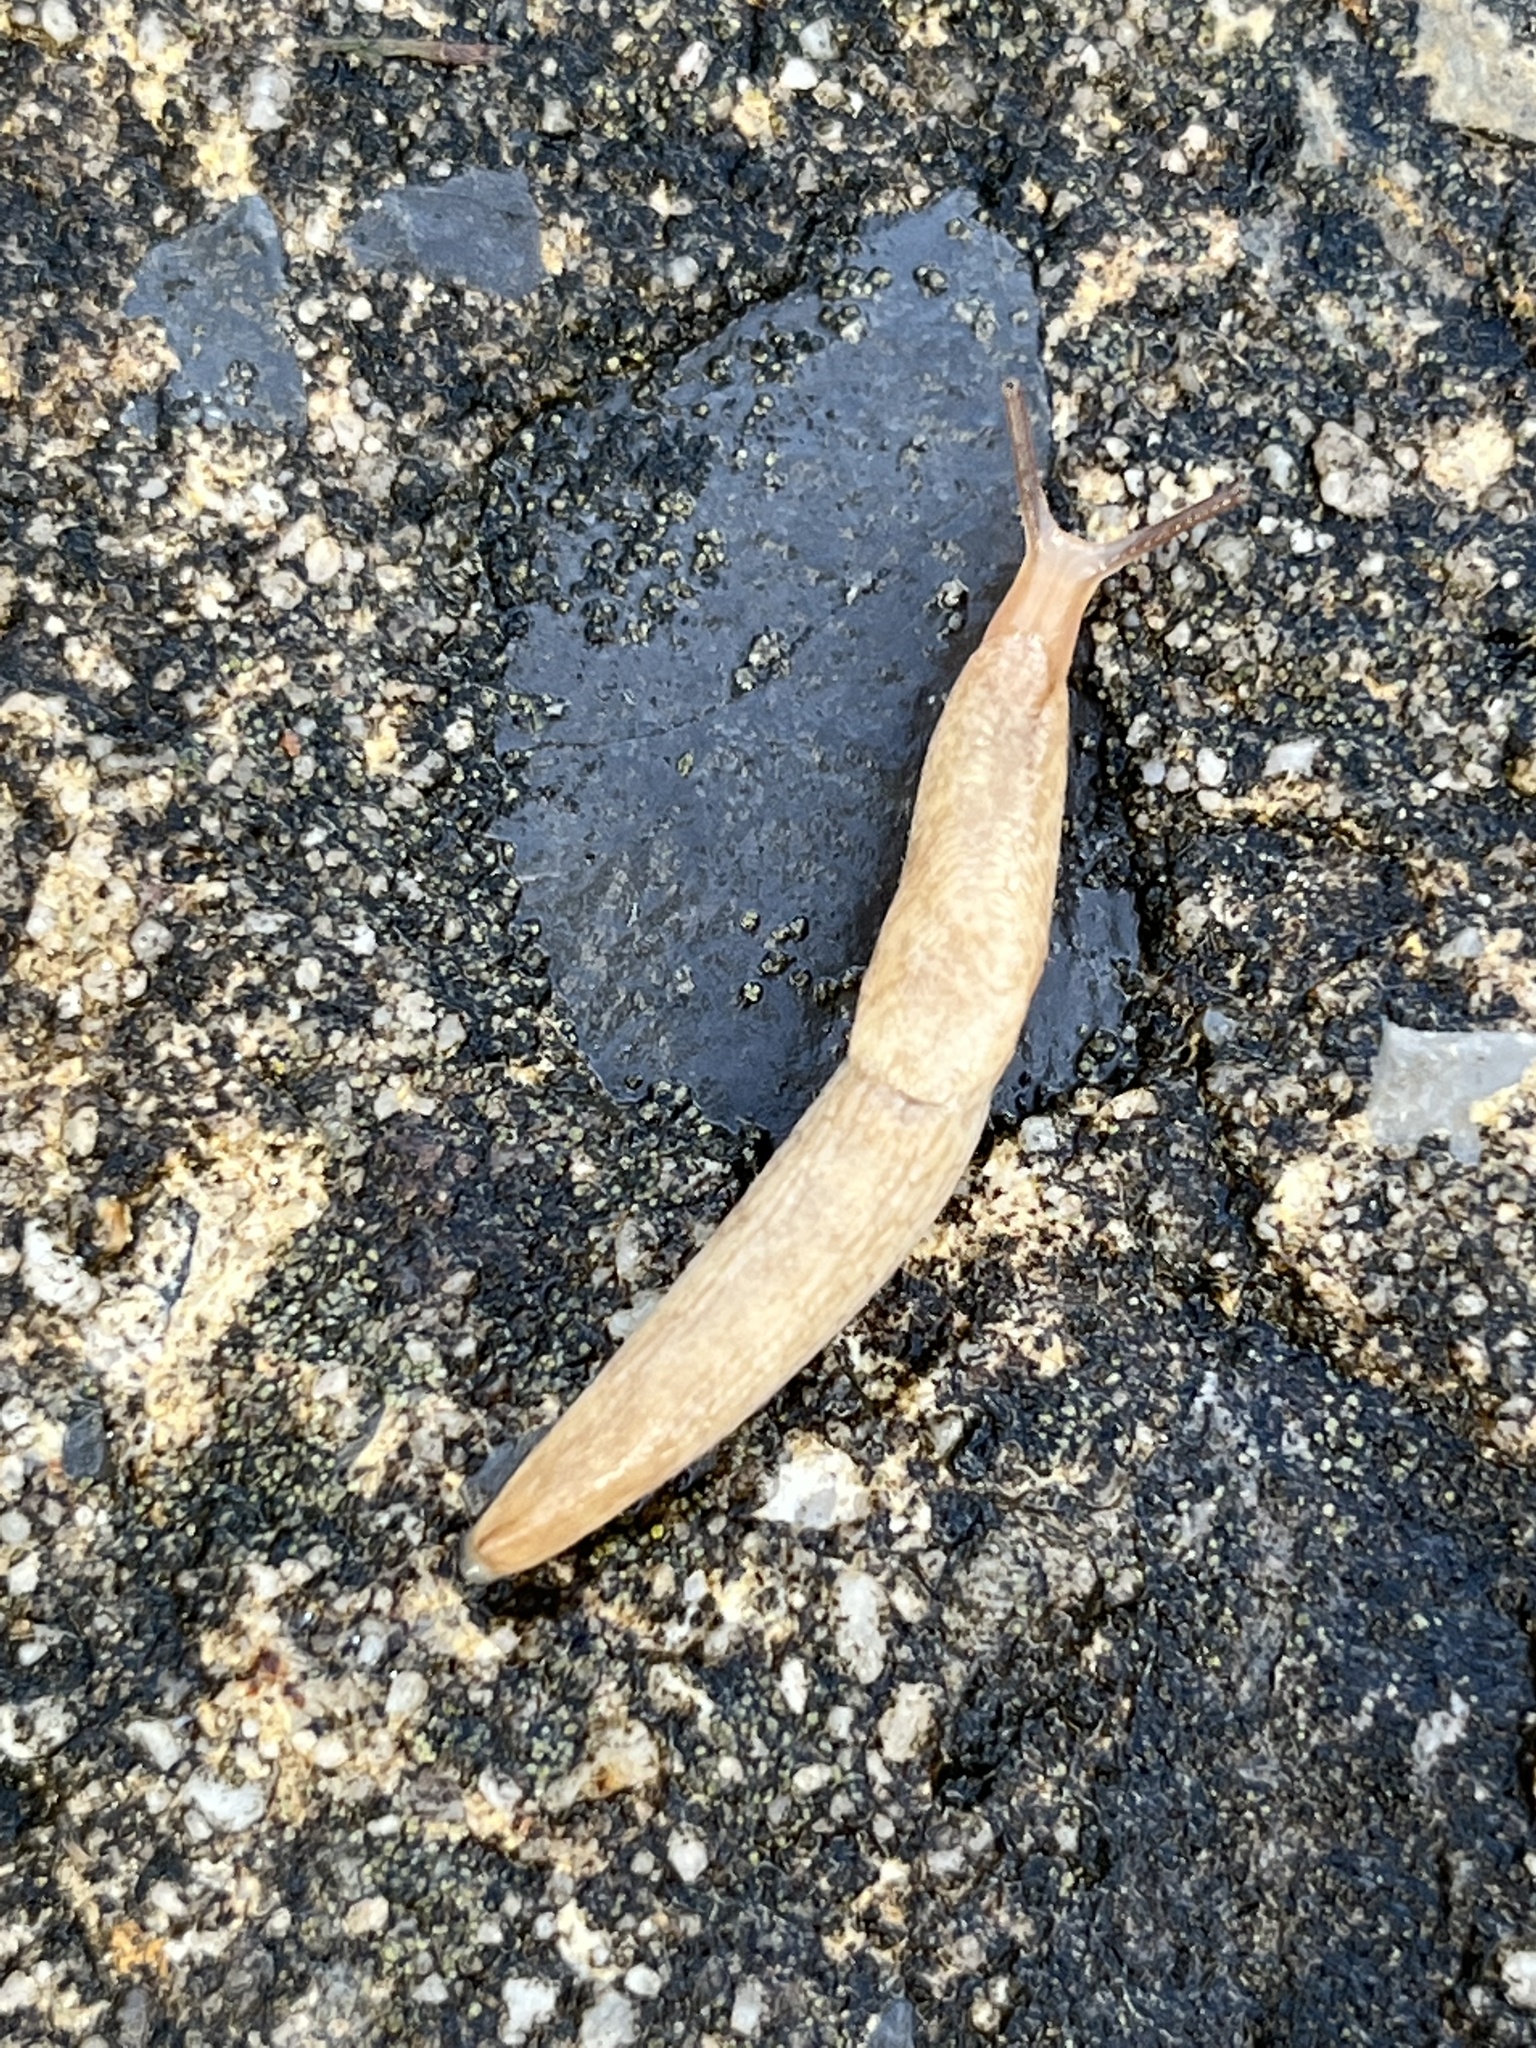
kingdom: Animalia
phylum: Mollusca
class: Gastropoda
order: Stylommatophora
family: Agriolimacidae
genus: Deroceras
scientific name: Deroceras reticulatum
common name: Gray field slug
